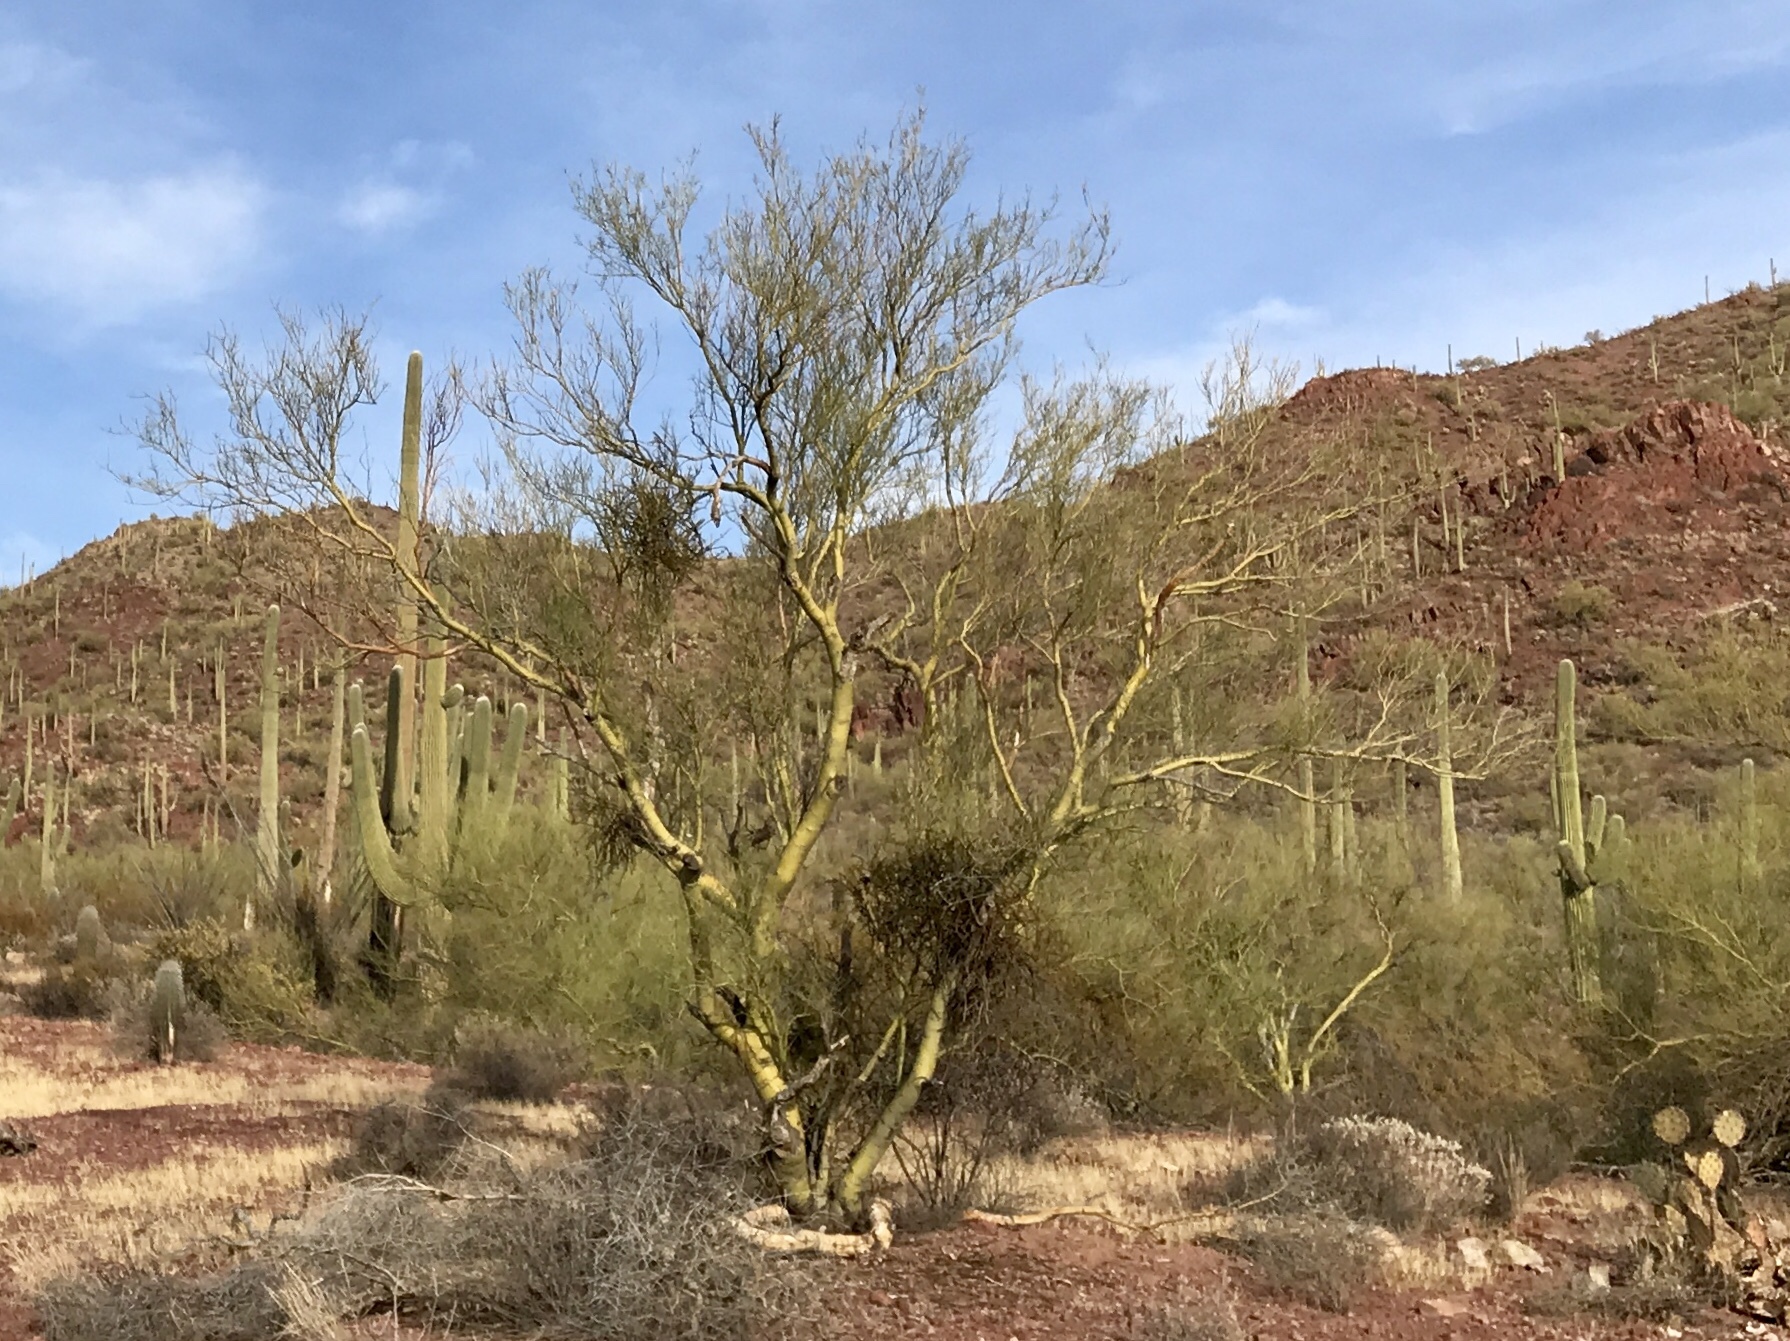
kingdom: Plantae
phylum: Tracheophyta
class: Magnoliopsida
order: Fabales
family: Fabaceae
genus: Parkinsonia
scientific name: Parkinsonia microphylla
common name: Yellow paloverde
